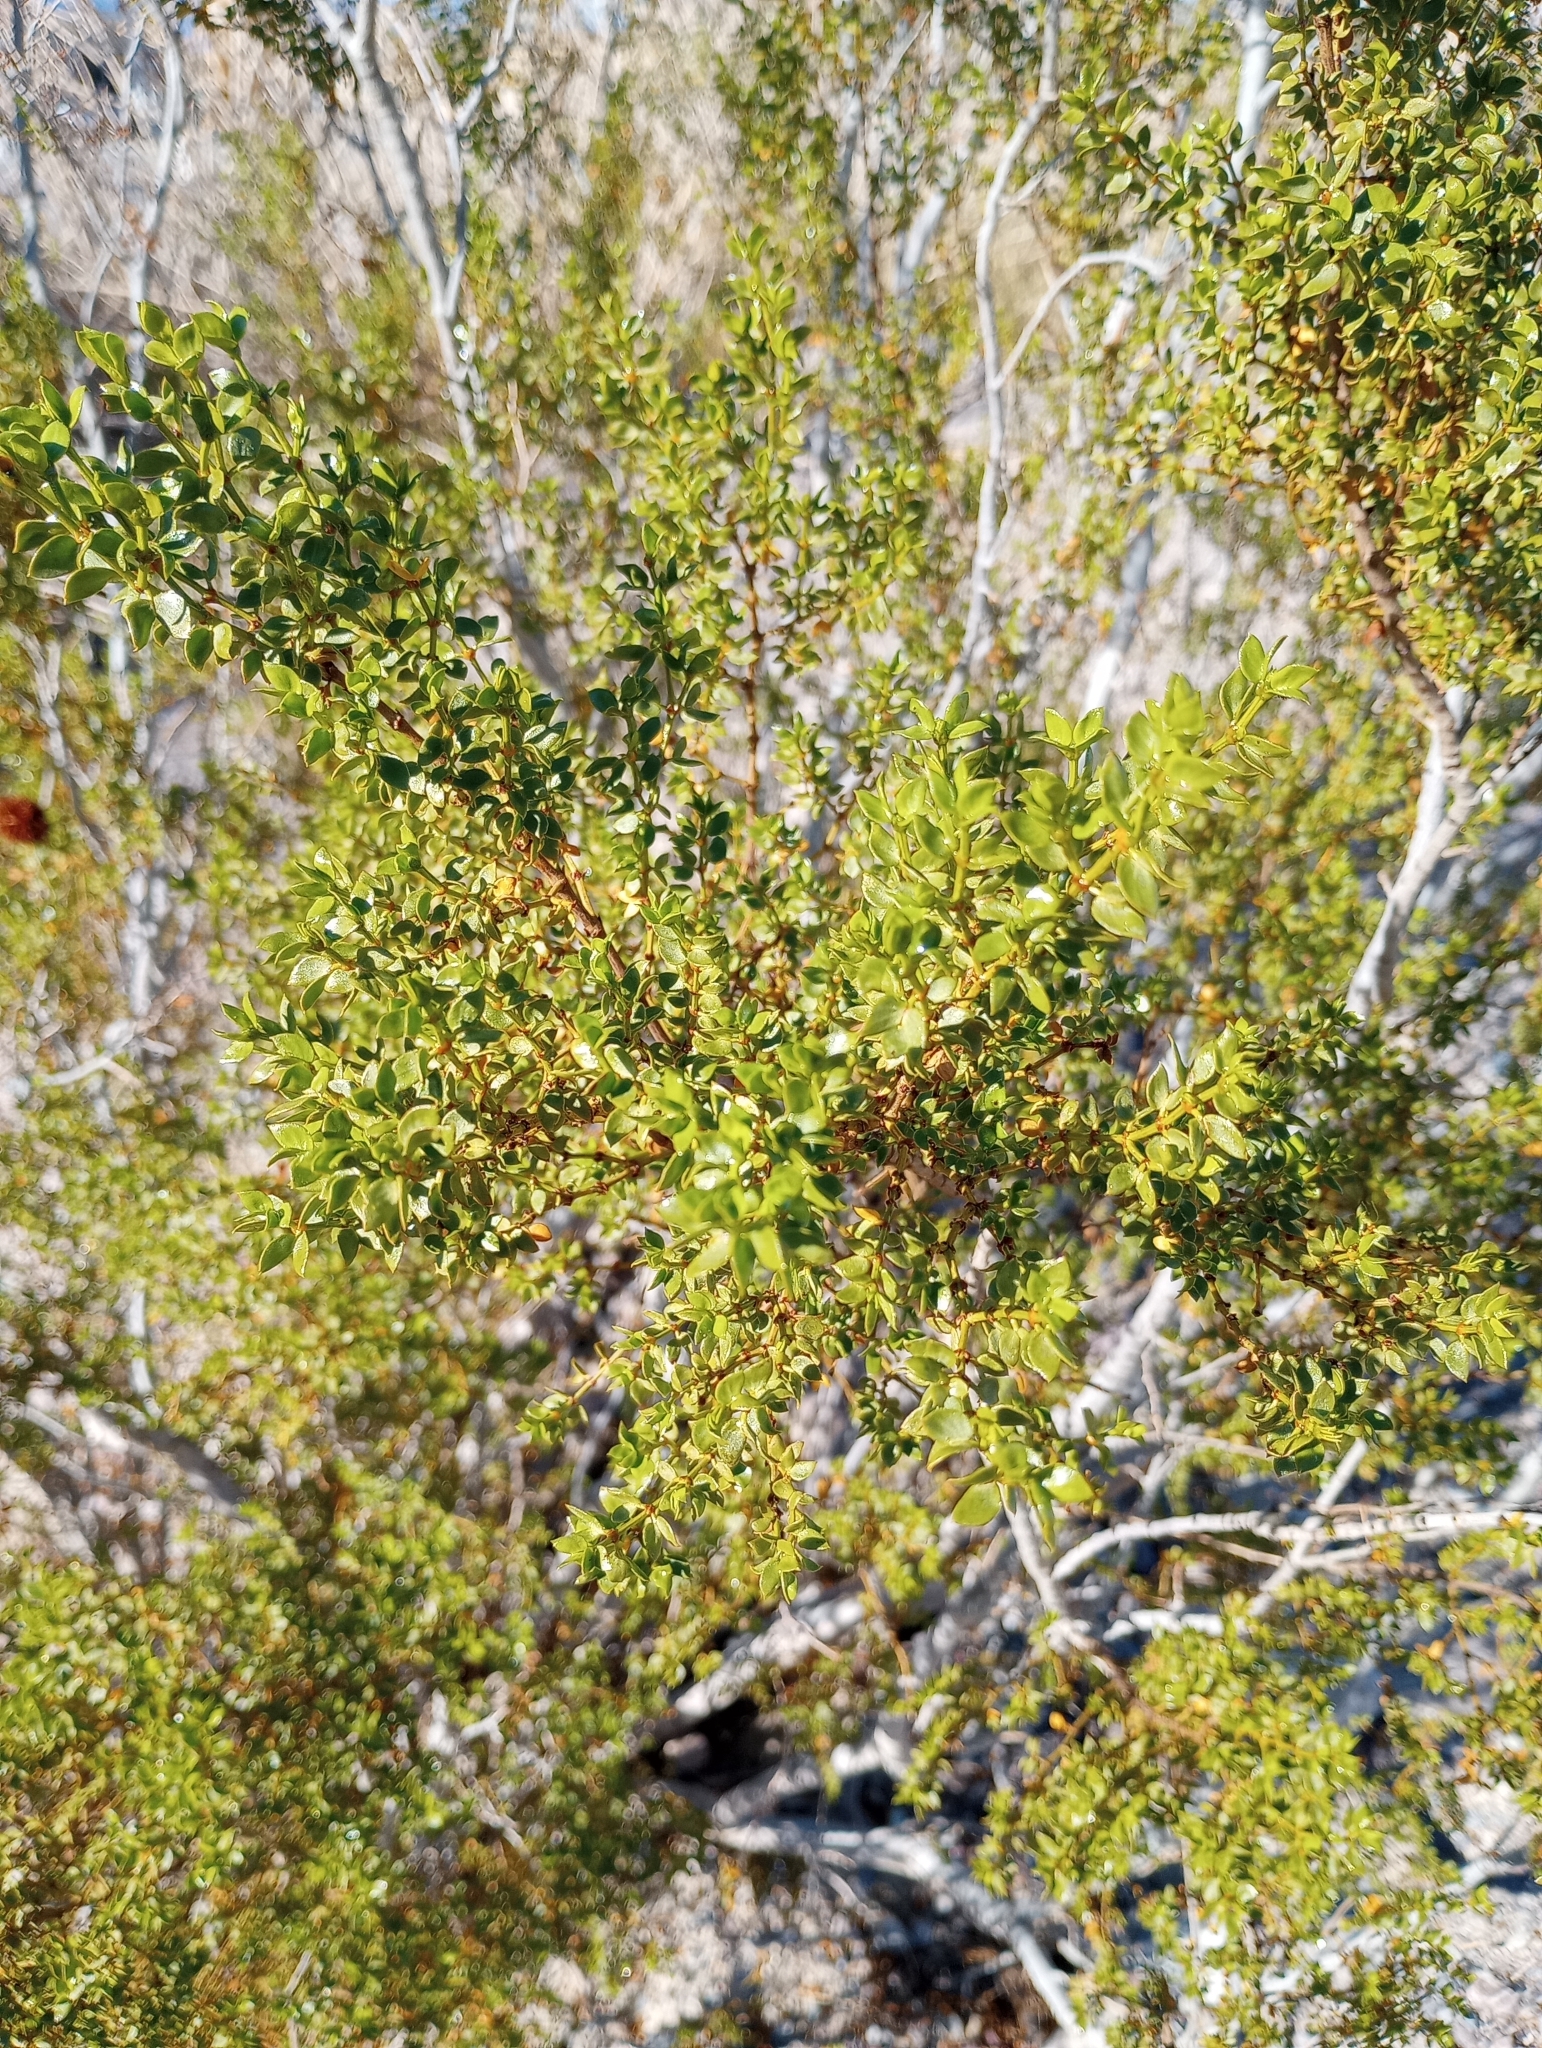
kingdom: Plantae
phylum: Tracheophyta
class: Magnoliopsida
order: Zygophyllales
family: Zygophyllaceae
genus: Larrea
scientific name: Larrea tridentata
